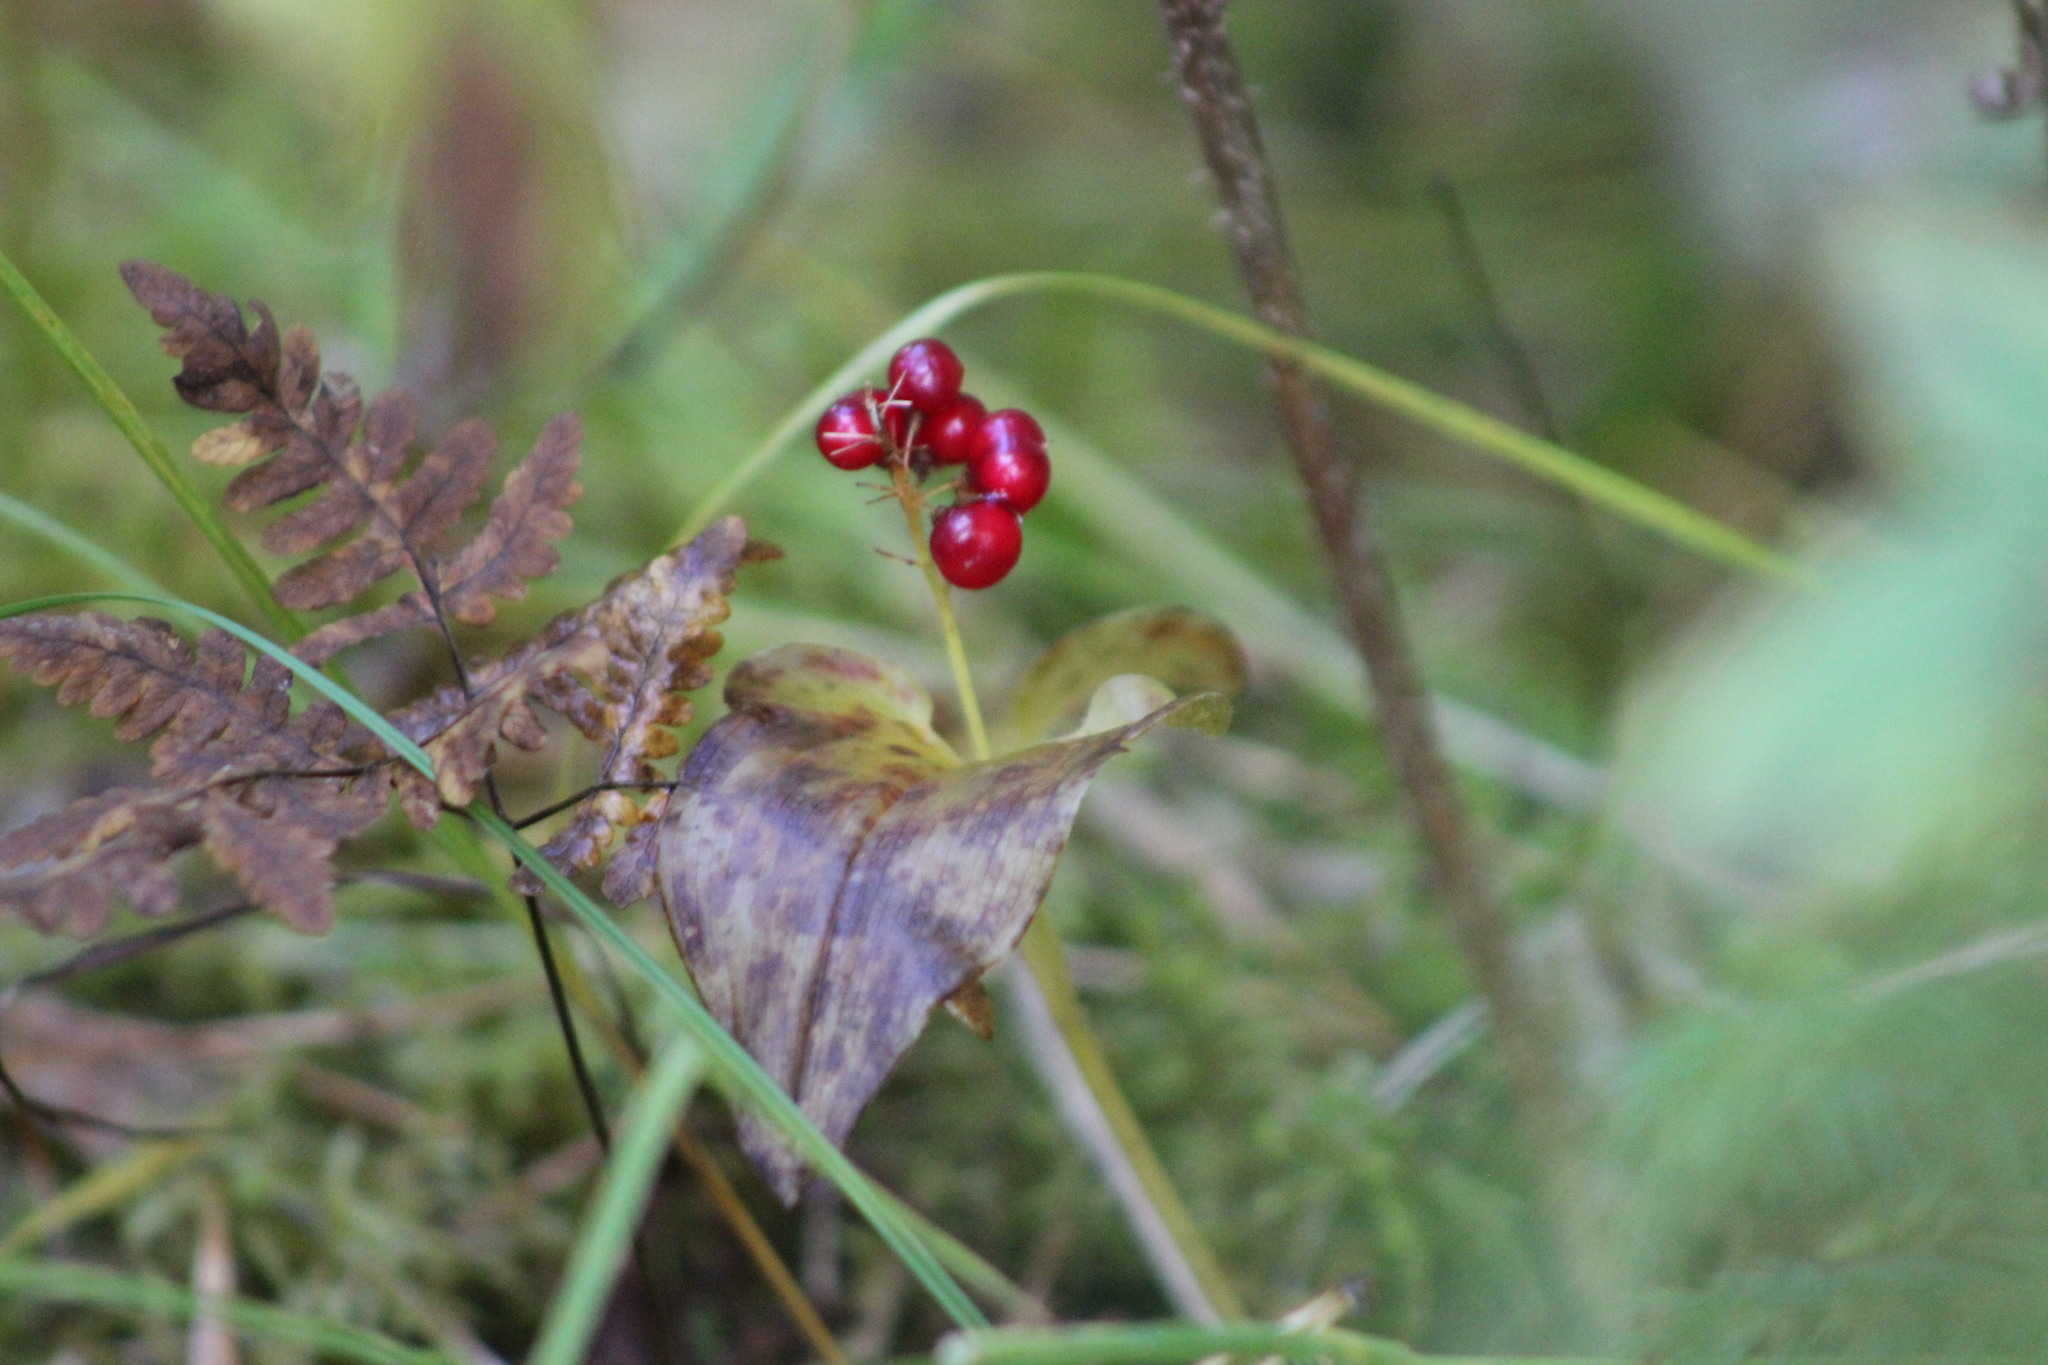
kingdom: Plantae
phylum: Tracheophyta
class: Liliopsida
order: Asparagales
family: Asparagaceae
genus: Maianthemum
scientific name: Maianthemum bifolium
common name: May lily
